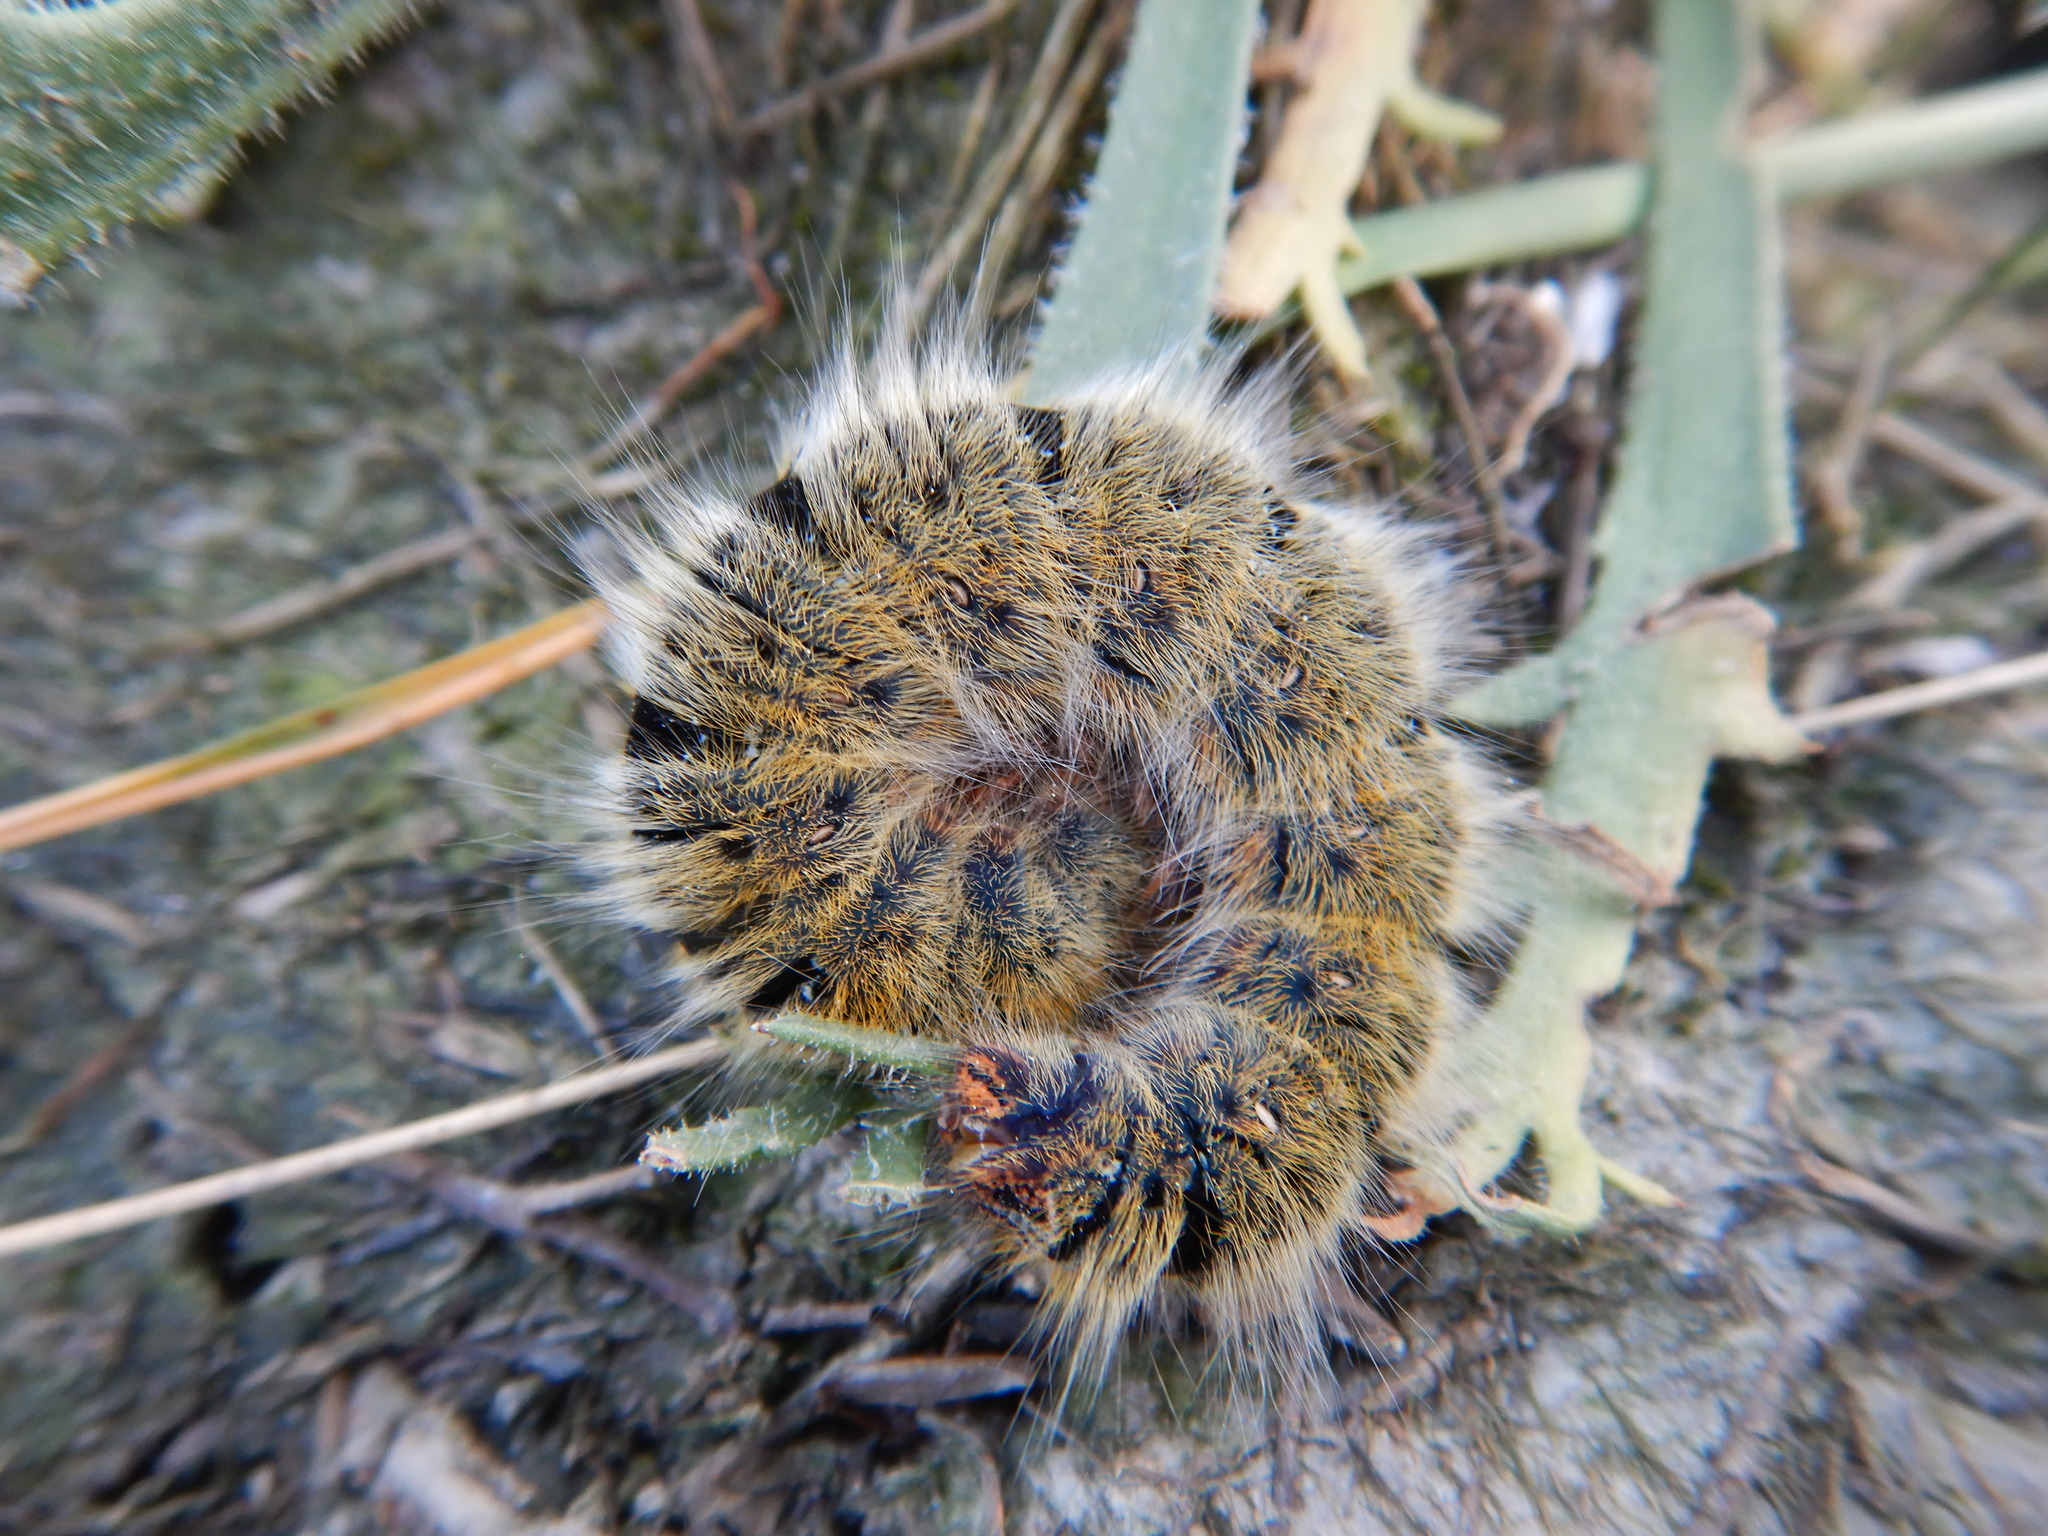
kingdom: Animalia
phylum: Arthropoda
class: Insecta
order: Lepidoptera
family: Lasiocampidae
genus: Lasiocampa
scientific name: Lasiocampa trifolii
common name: Grass eggar
